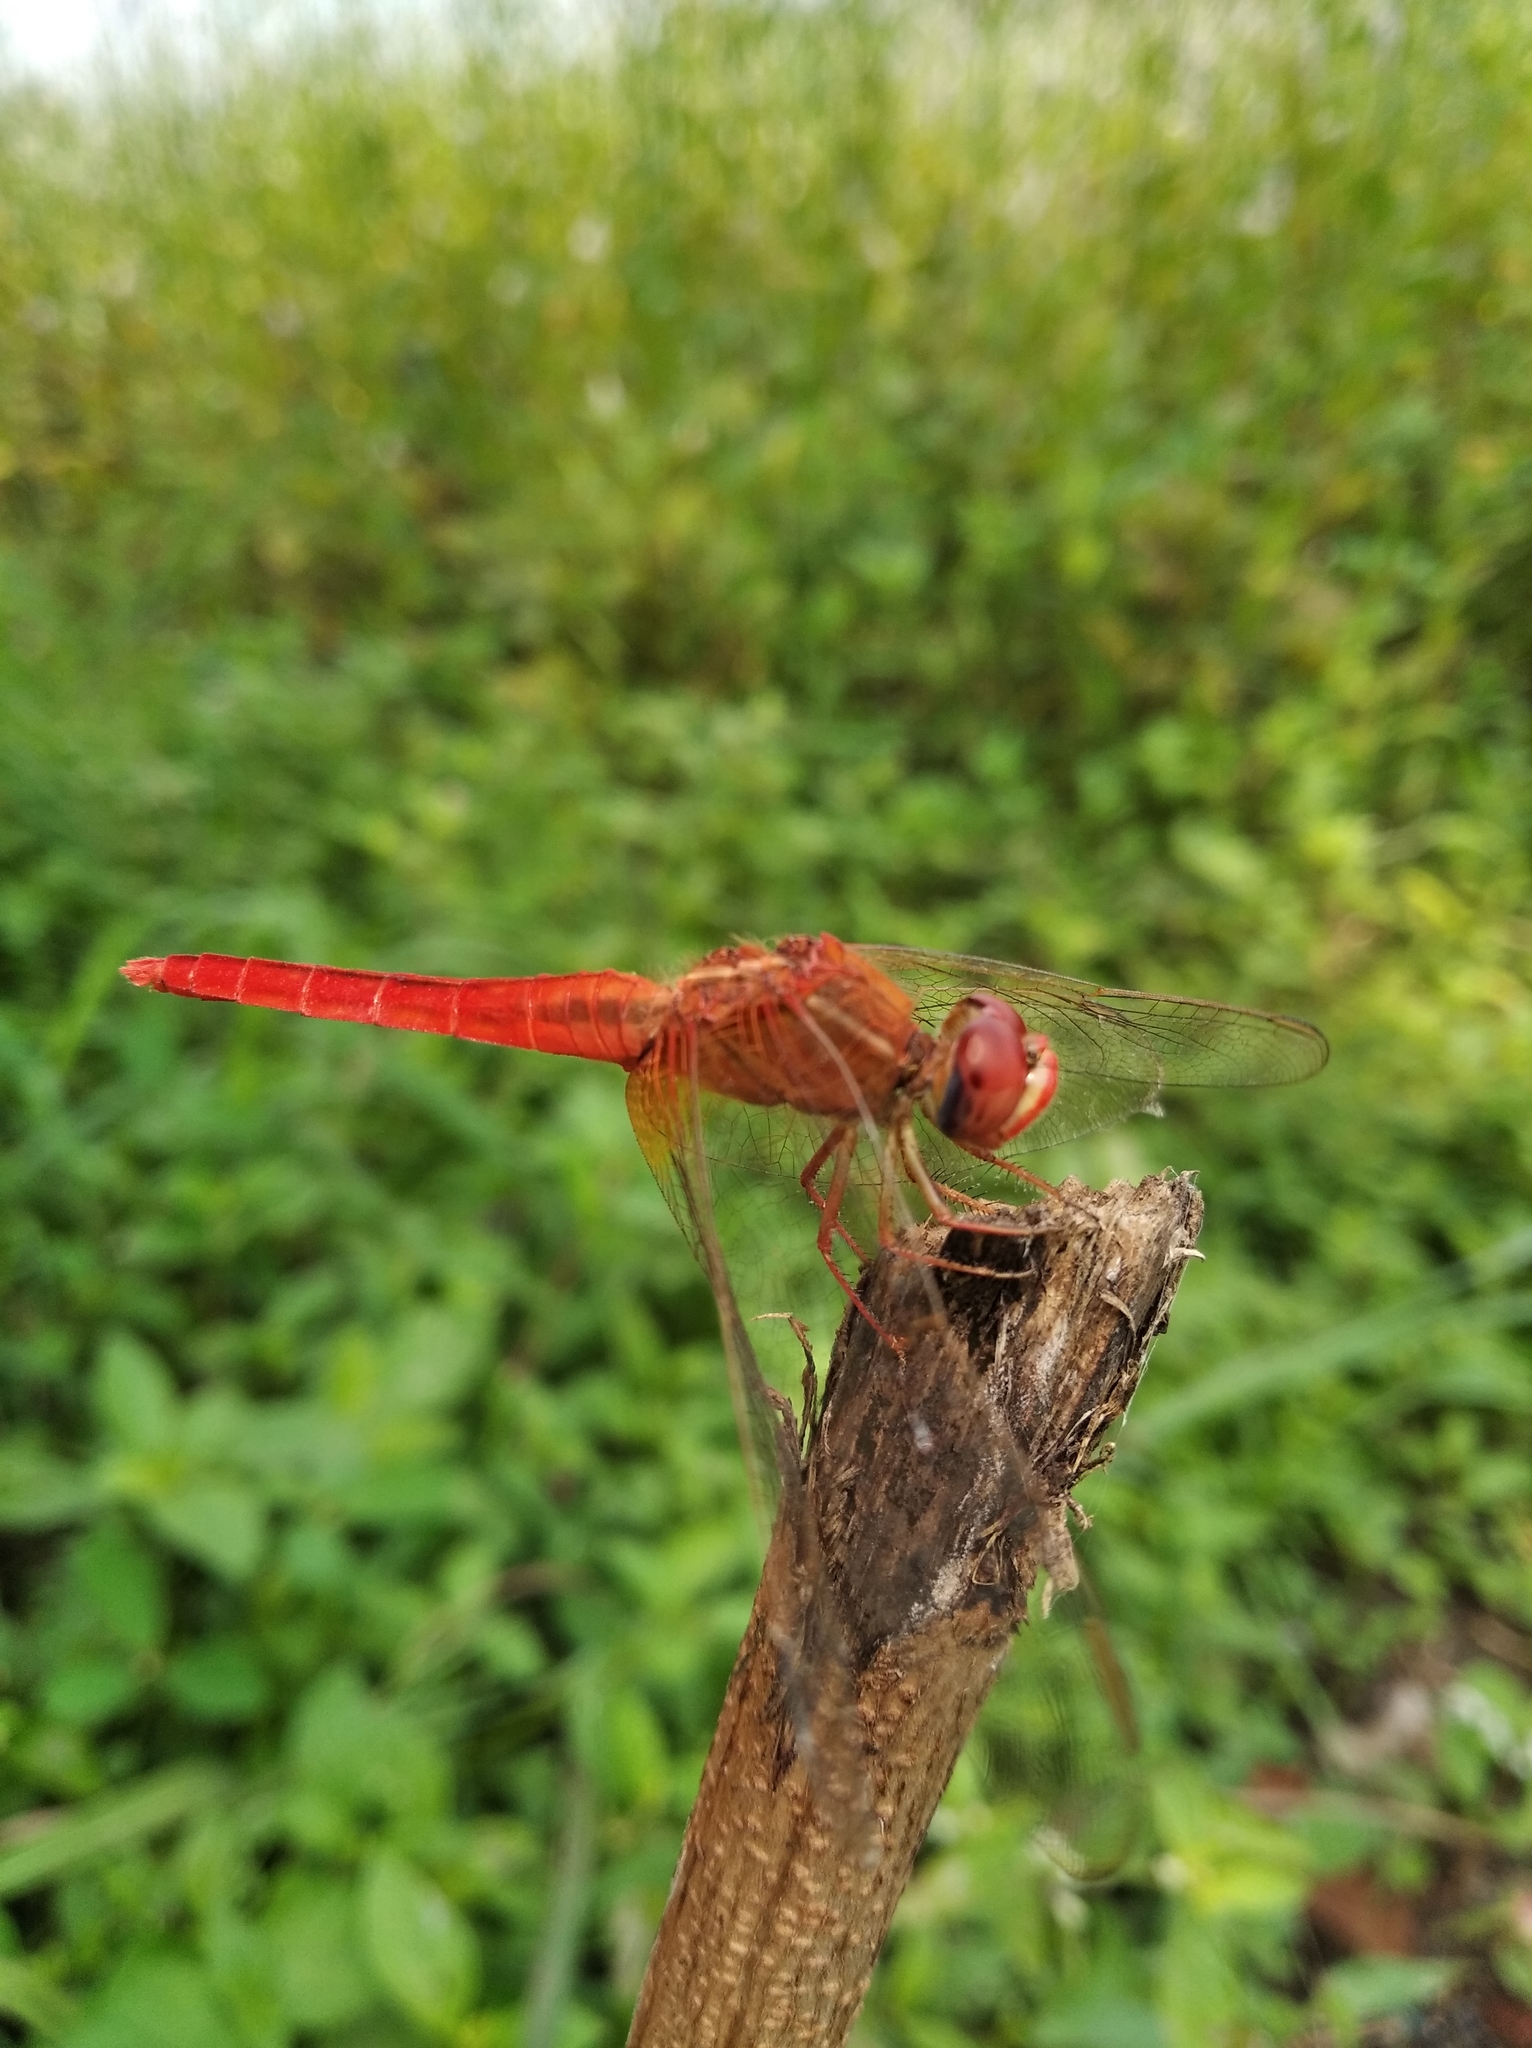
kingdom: Animalia
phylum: Arthropoda
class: Insecta
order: Odonata
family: Libellulidae
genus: Crocothemis
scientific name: Crocothemis servilia
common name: Scarlet skimmer
